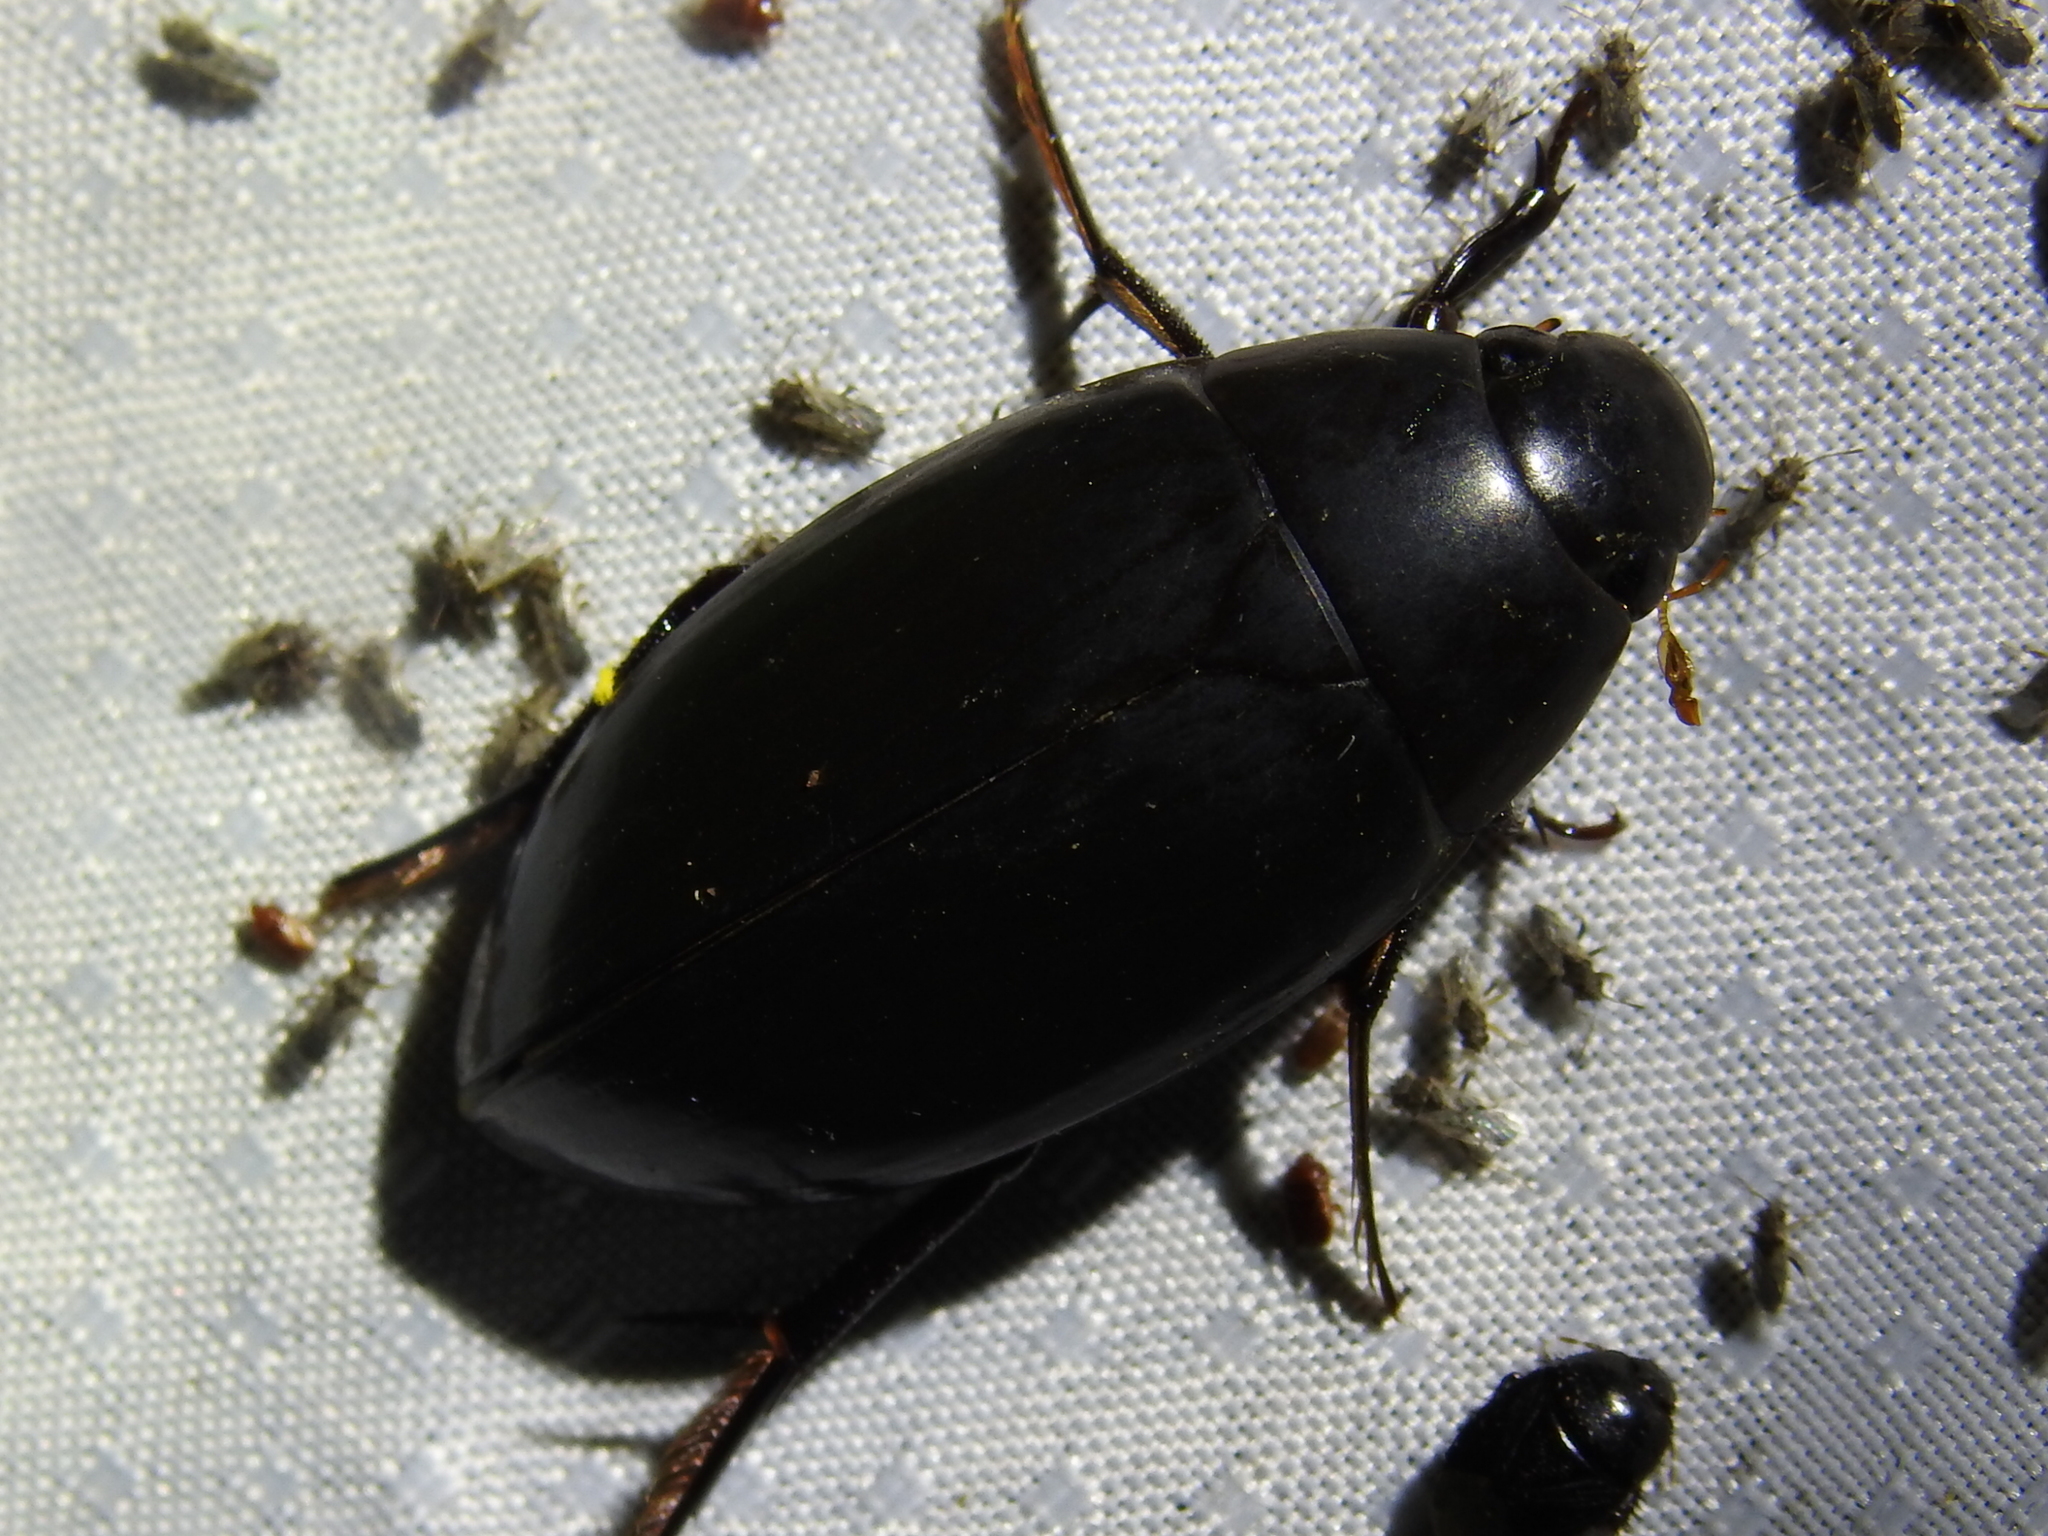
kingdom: Animalia
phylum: Arthropoda
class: Insecta
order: Coleoptera
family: Hydrophilidae
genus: Hydrophilus
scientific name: Hydrophilus triangularis
